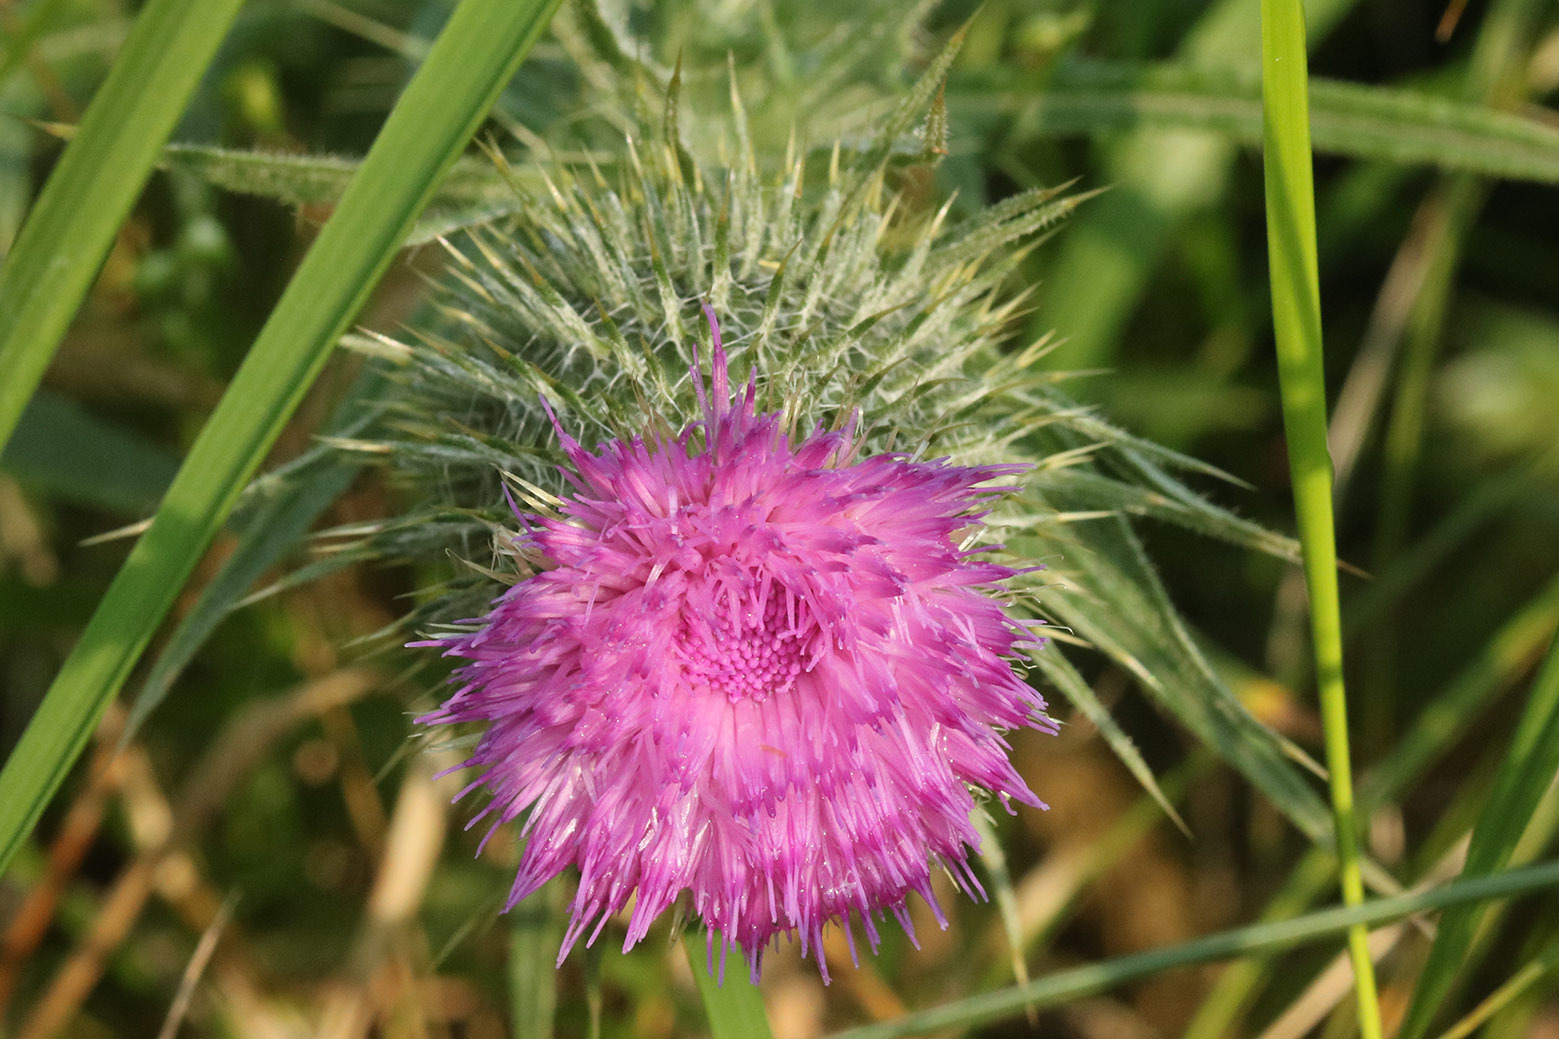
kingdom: Plantae
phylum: Tracheophyta
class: Magnoliopsida
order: Asterales
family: Asteraceae
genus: Cirsium
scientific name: Cirsium vulgare
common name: Bull thistle
